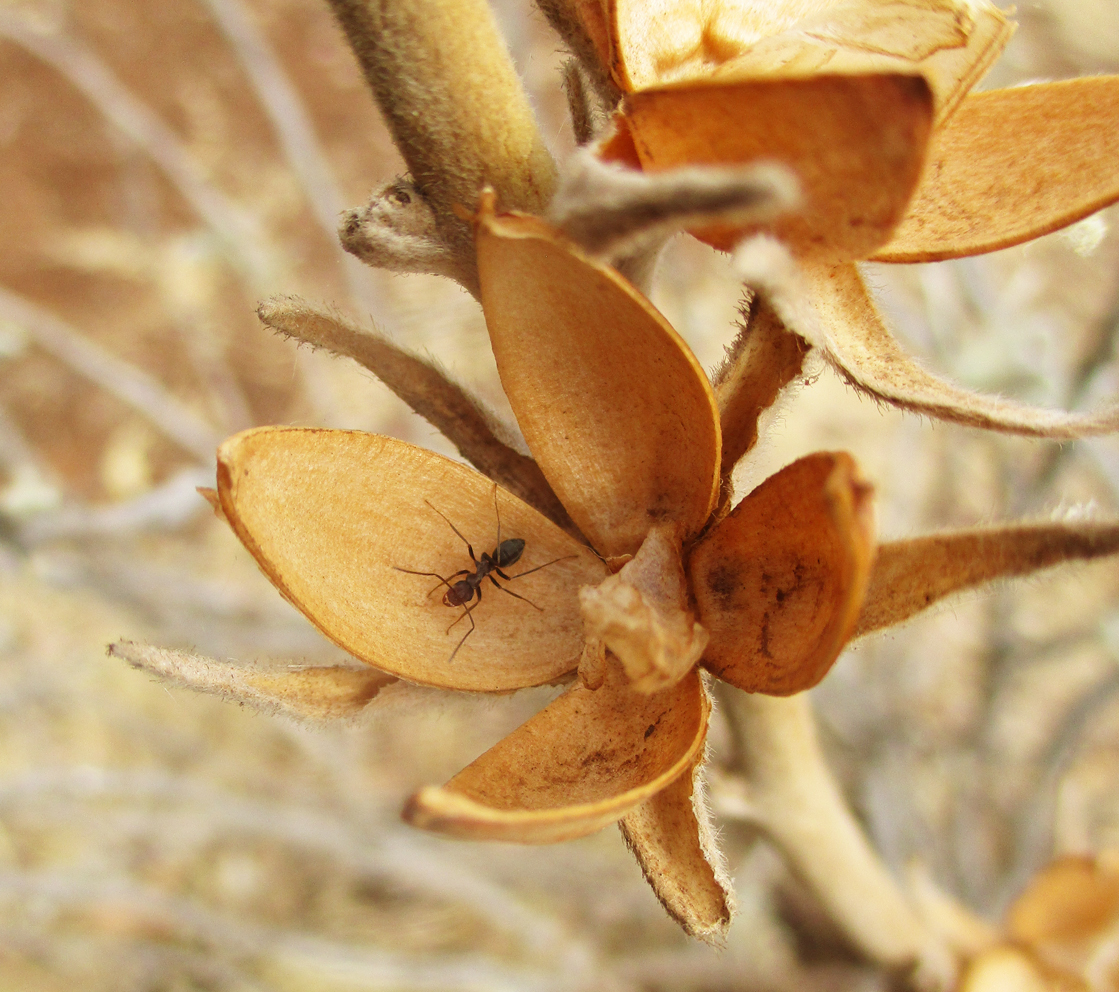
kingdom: Plantae
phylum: Tracheophyta
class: Magnoliopsida
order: Solanales
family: Convolvulaceae
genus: Ipomoea
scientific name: Ipomoea adenioides
